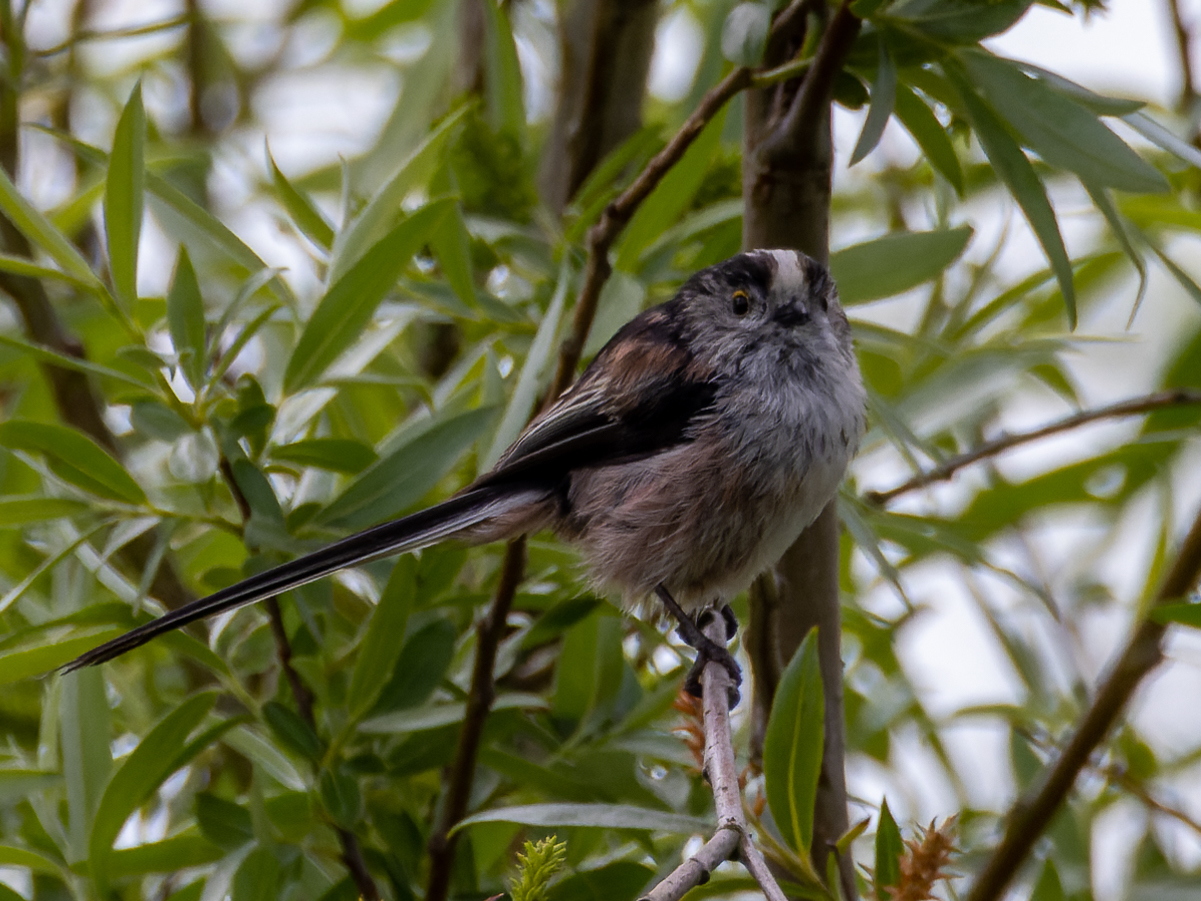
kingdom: Animalia
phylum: Chordata
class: Aves
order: Passeriformes
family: Aegithalidae
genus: Aegithalos
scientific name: Aegithalos caudatus
